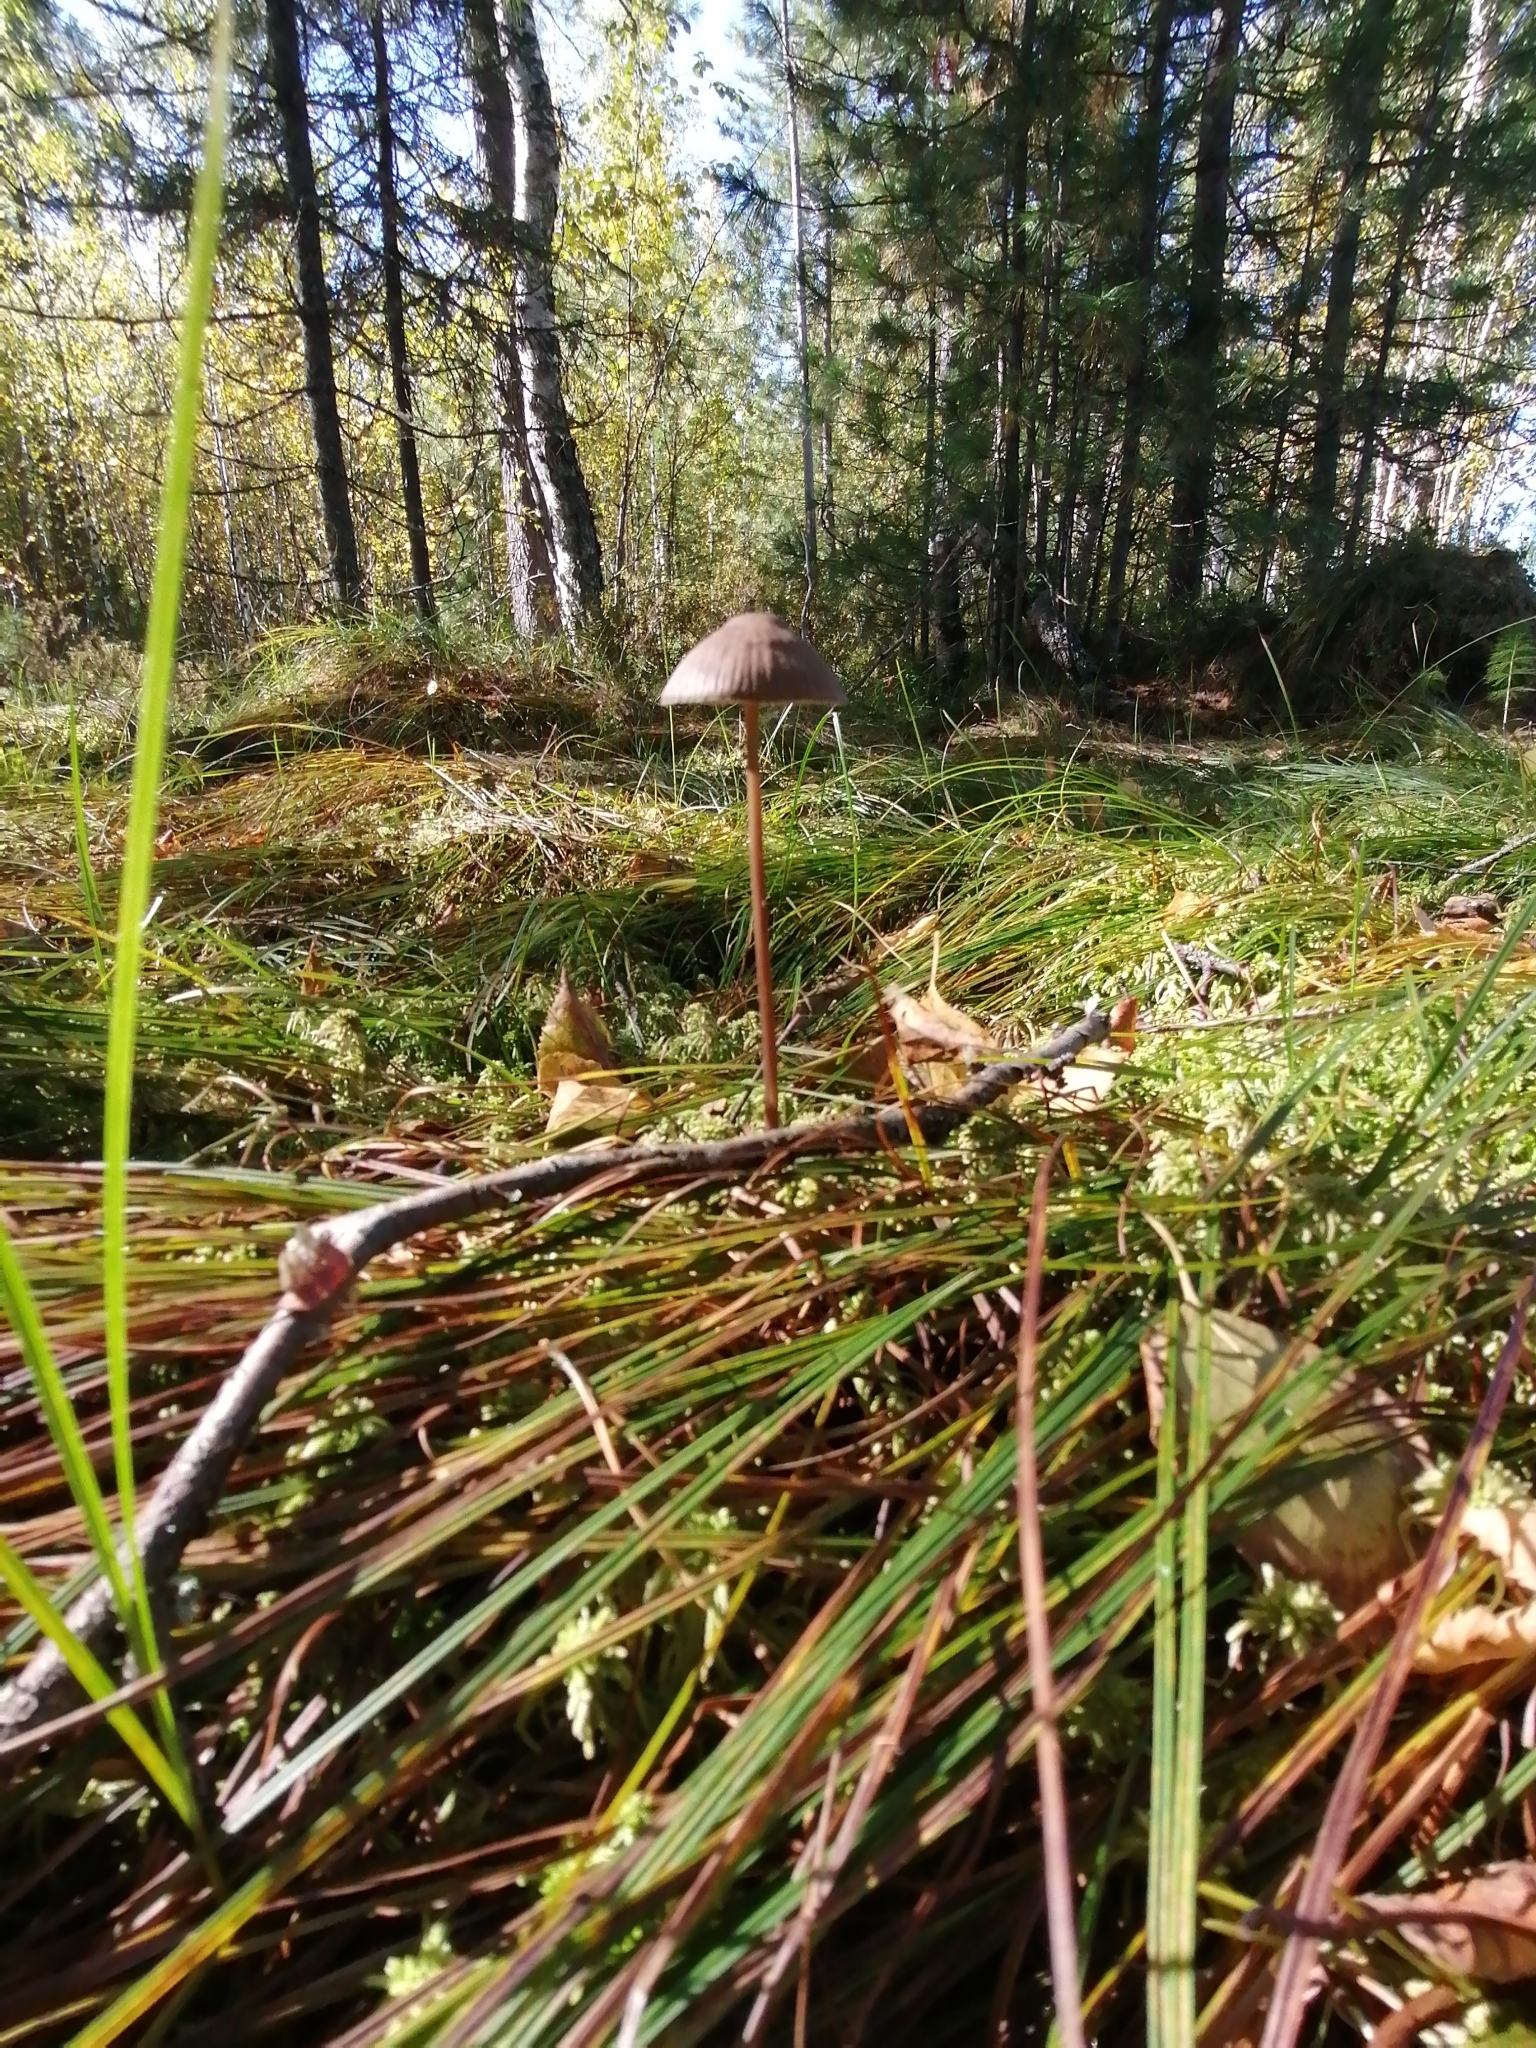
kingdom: Fungi
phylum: Basidiomycota
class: Agaricomycetes
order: Agaricales
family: Mycenaceae
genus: Mycena
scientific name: Mycena megaspora
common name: Rooting bonnet
